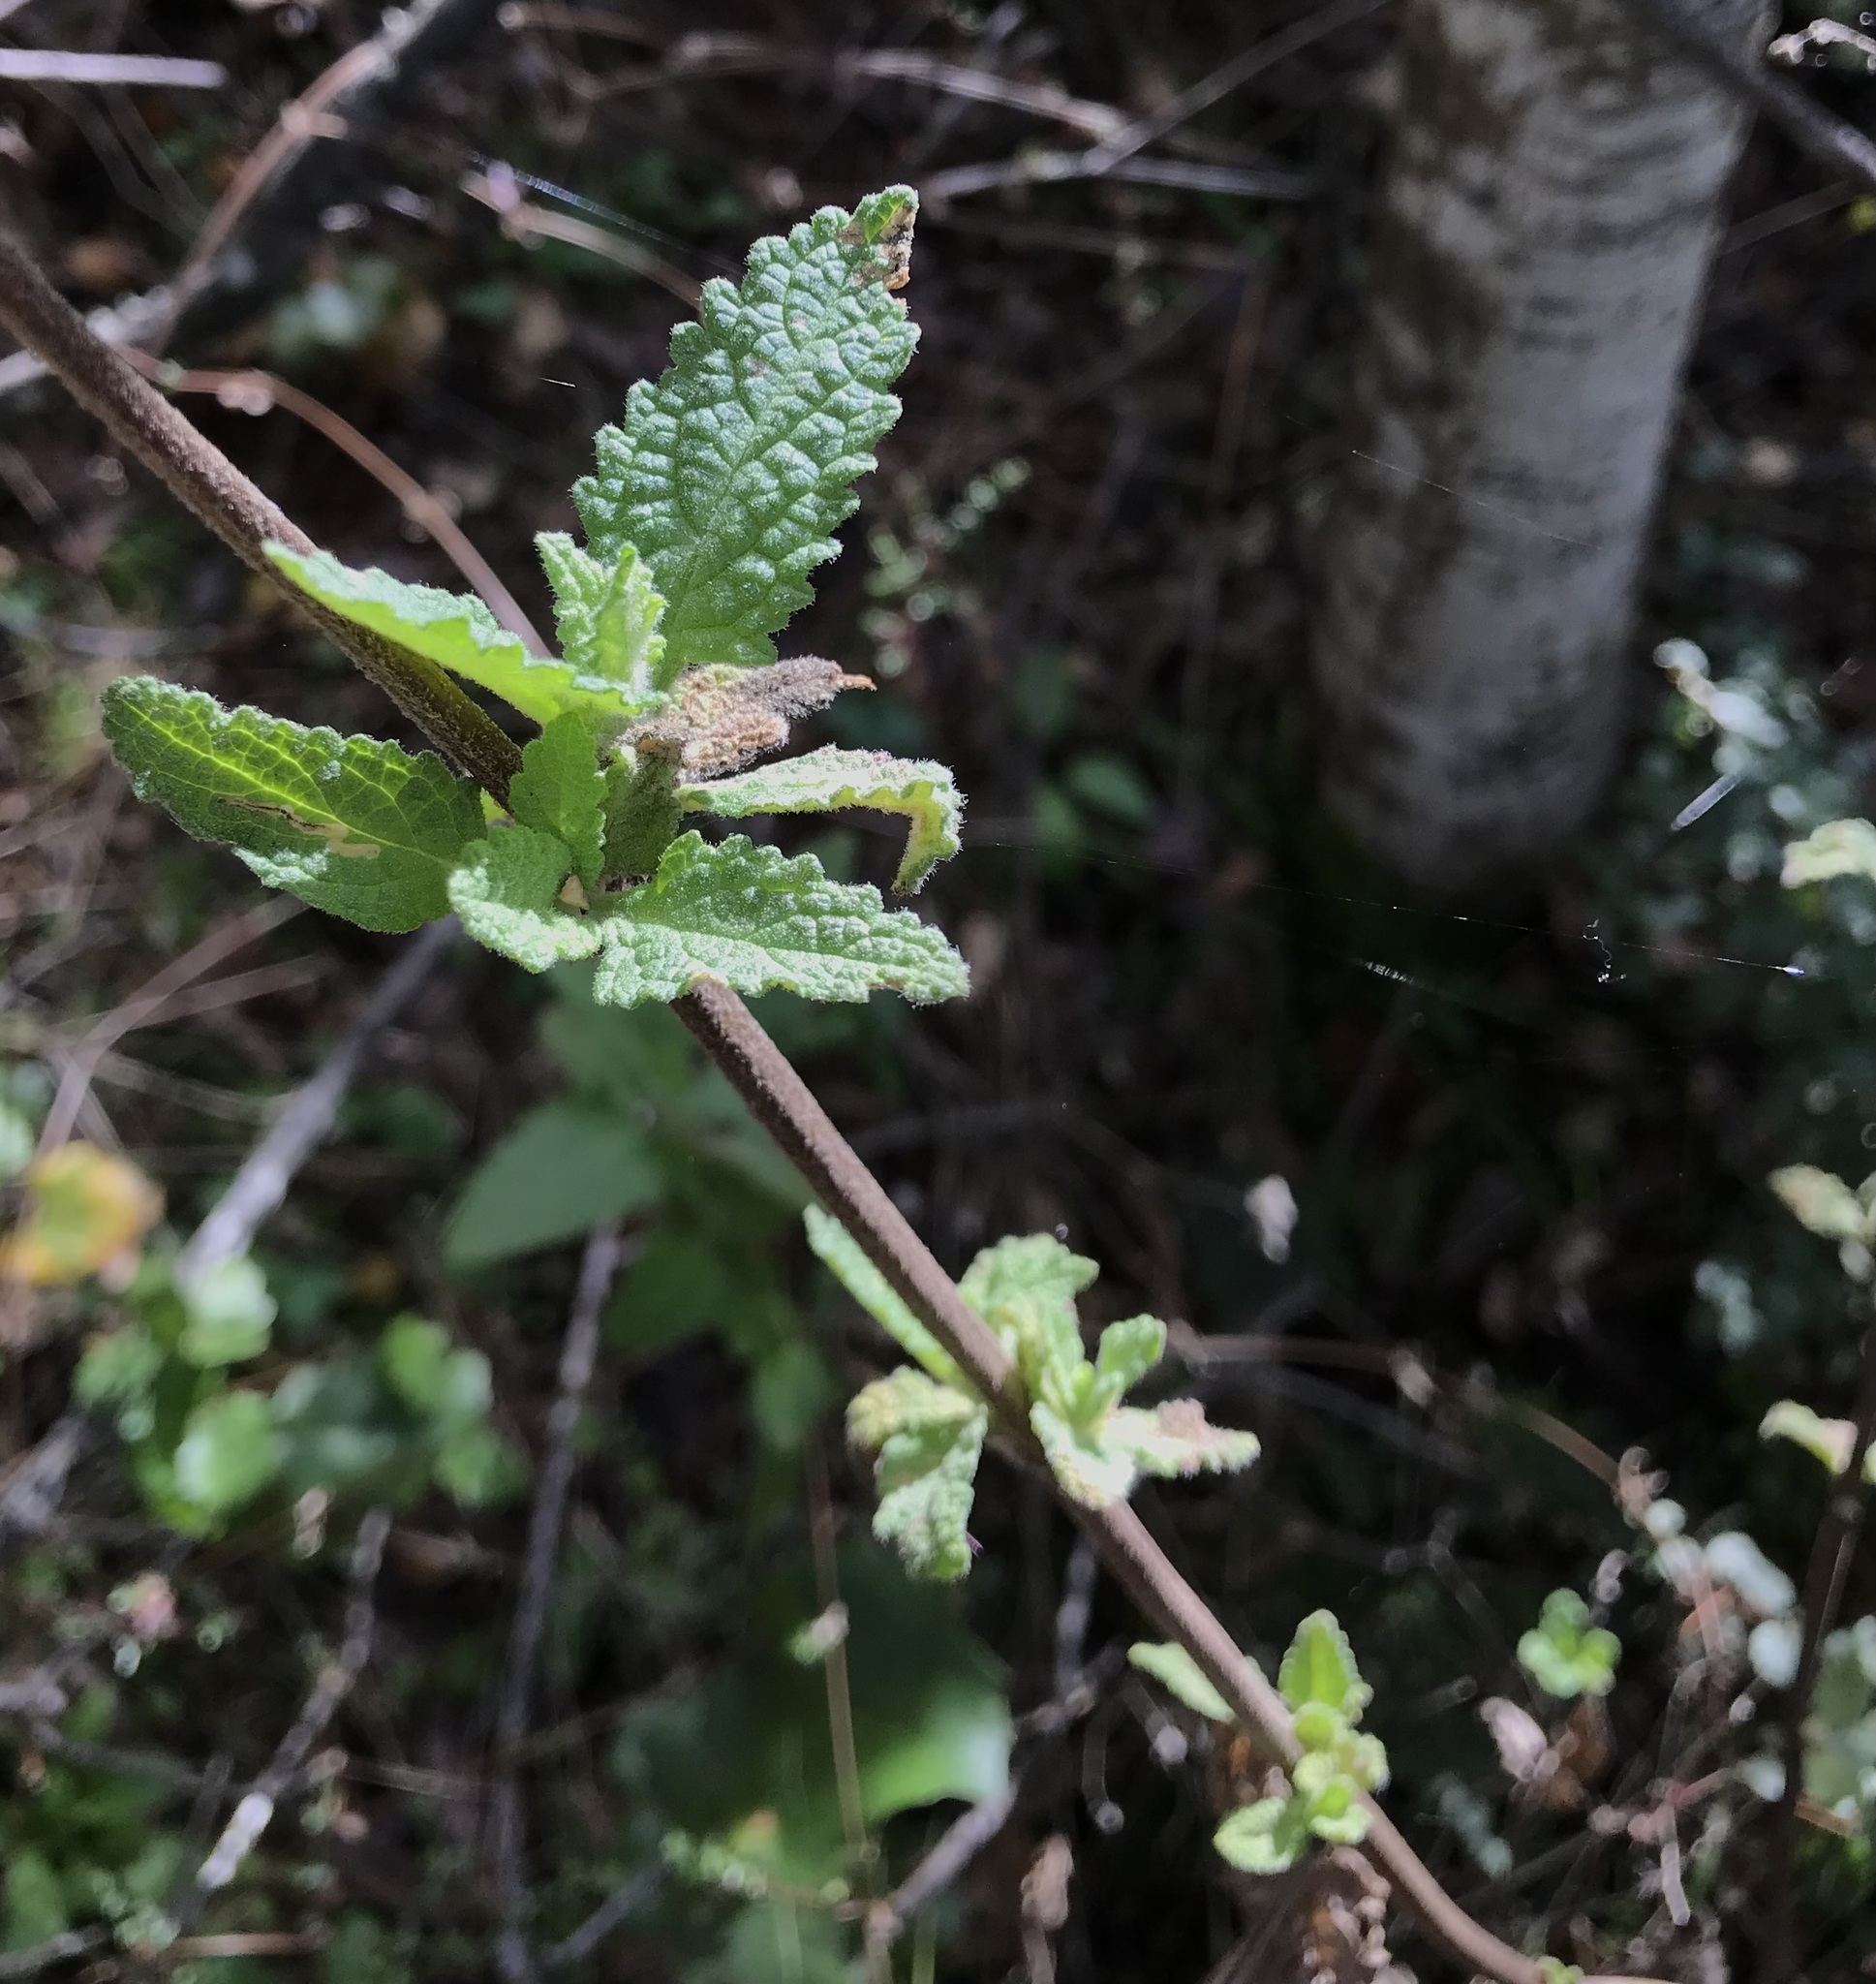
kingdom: Plantae
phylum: Tracheophyta
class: Magnoliopsida
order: Lamiales
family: Lamiaceae
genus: Lepechinia
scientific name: Lepechinia calycina
